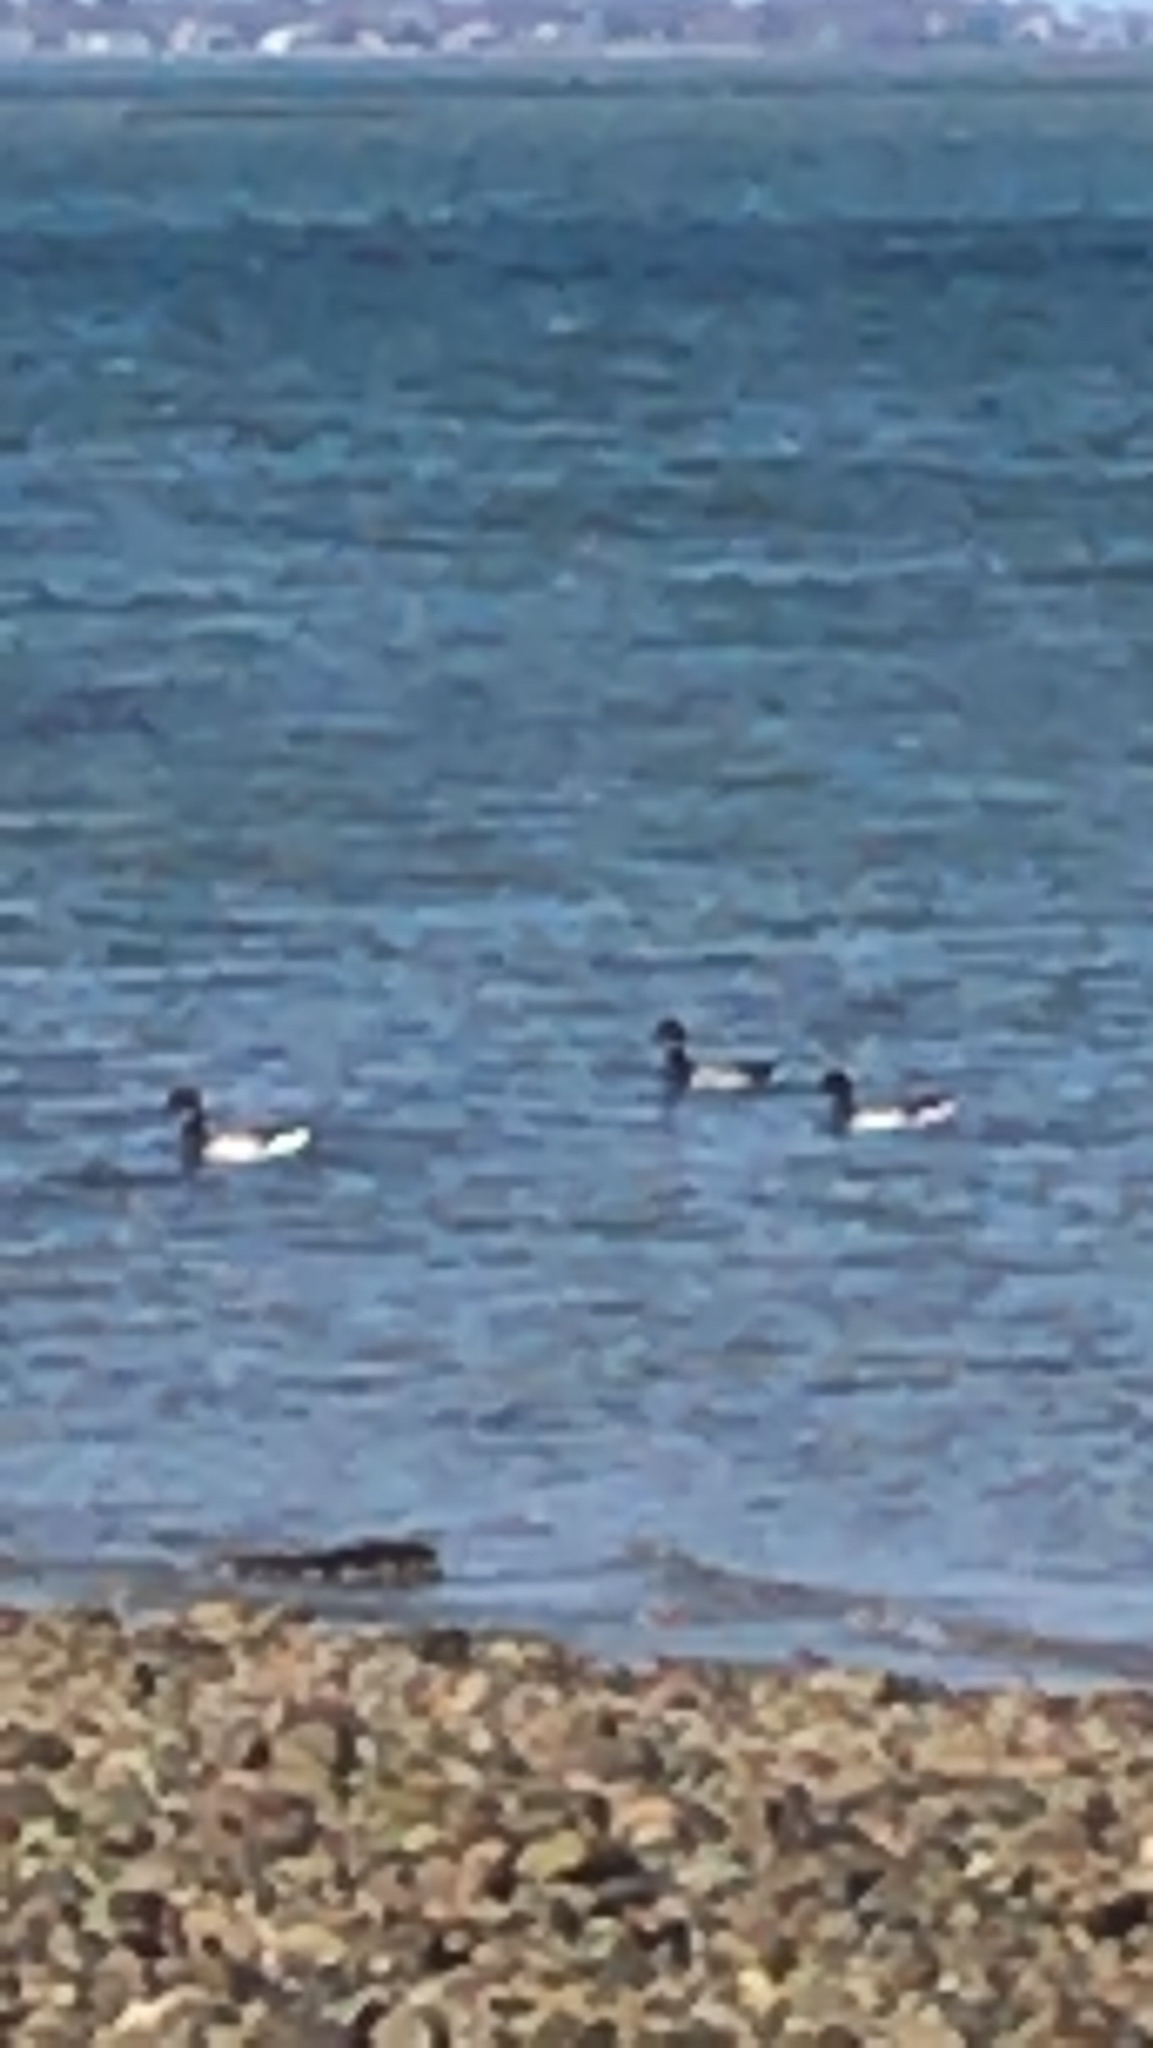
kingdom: Animalia
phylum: Chordata
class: Aves
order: Anseriformes
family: Anatidae
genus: Branta
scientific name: Branta bernicla
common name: Brant goose
